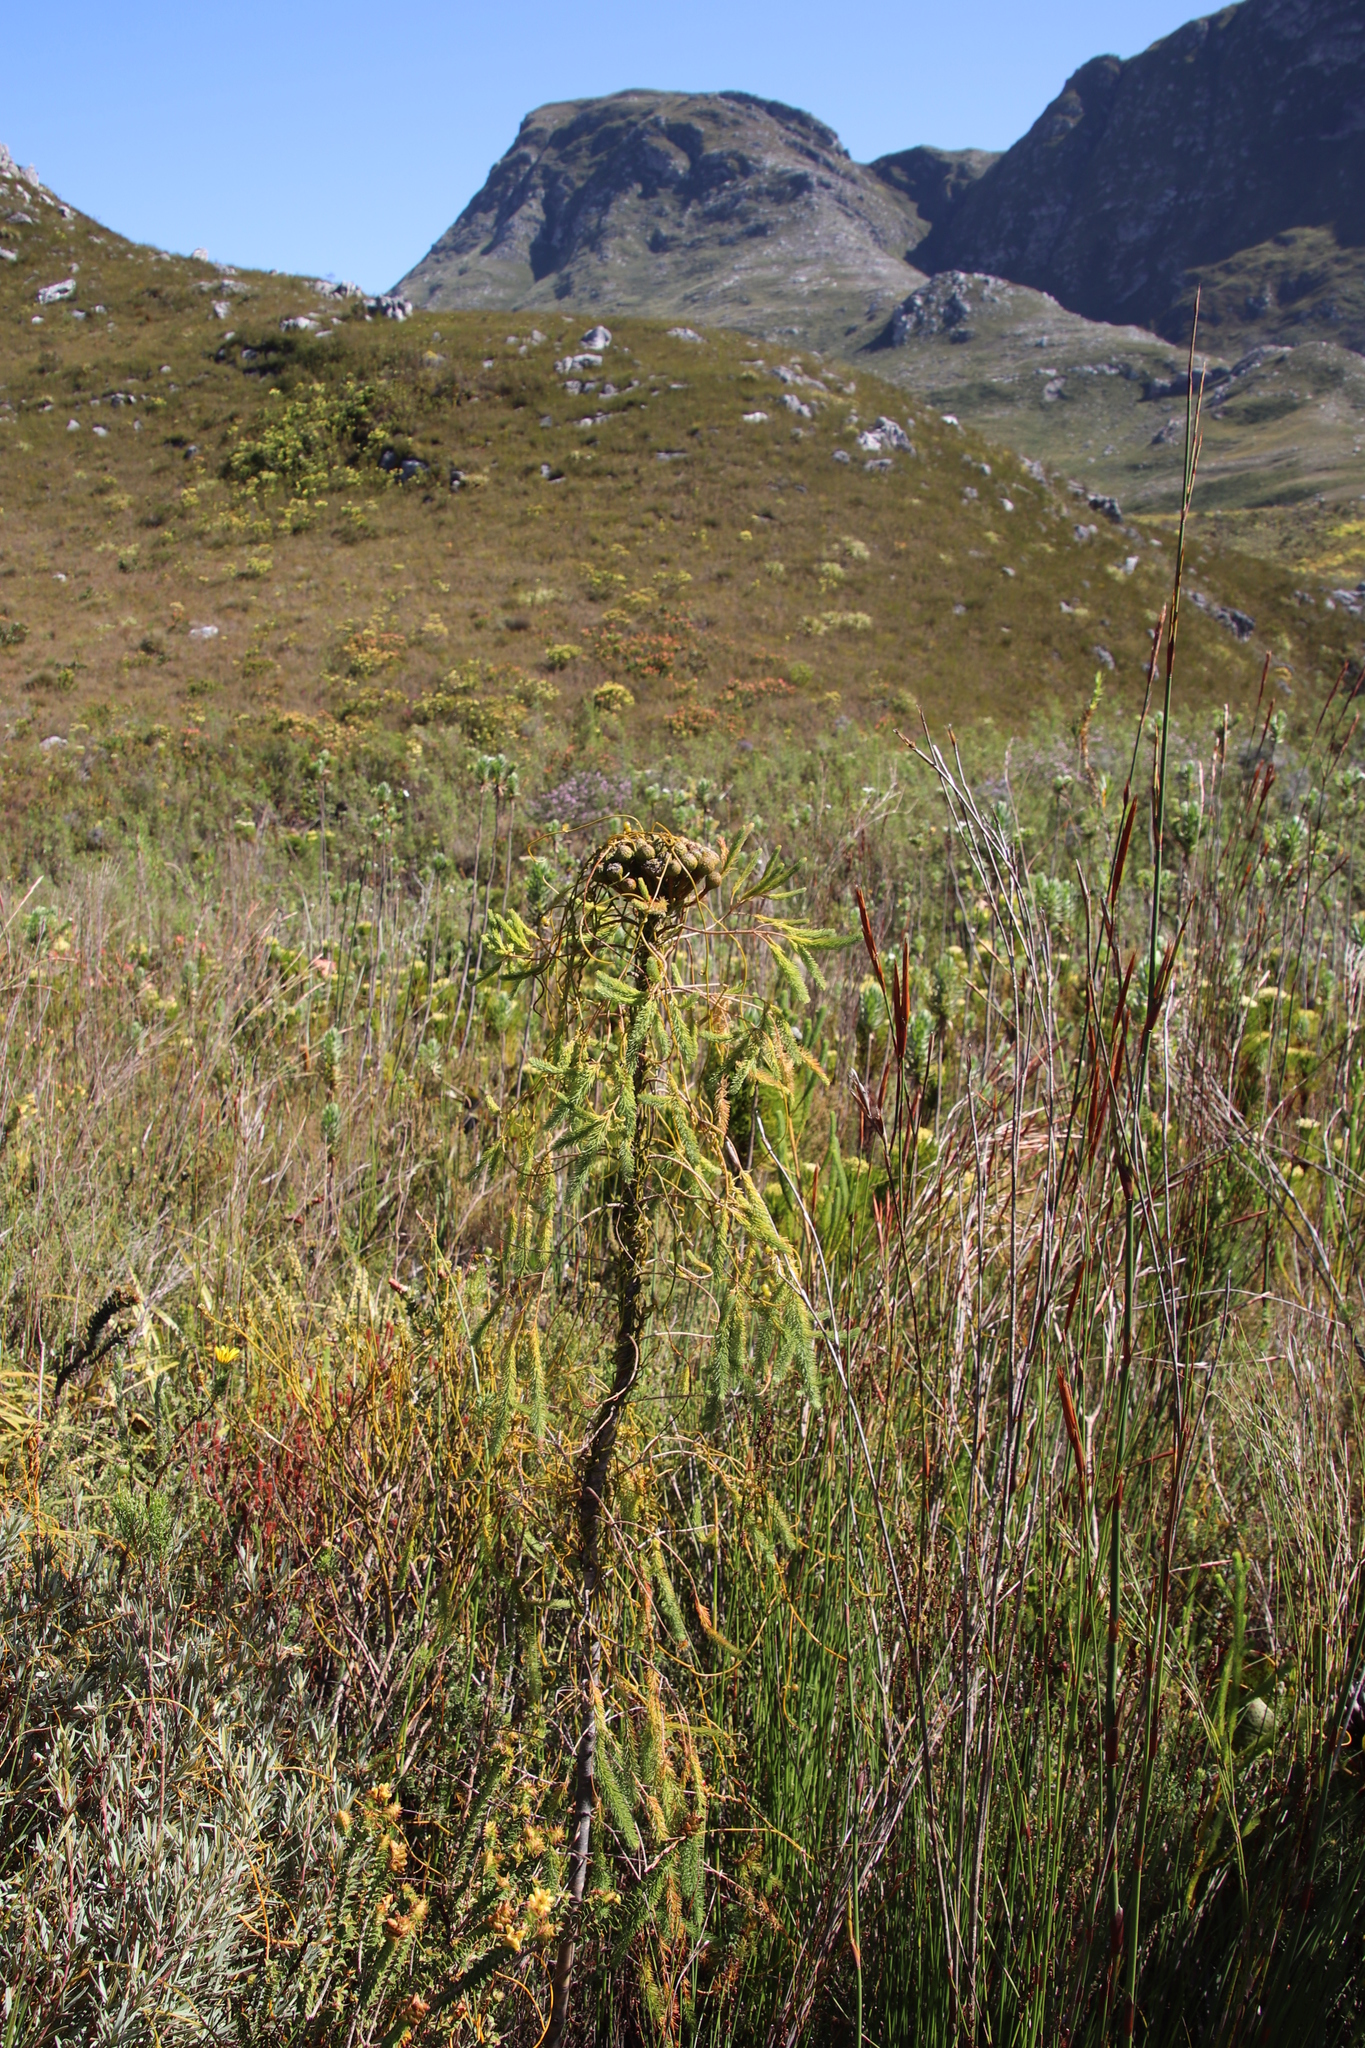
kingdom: Plantae
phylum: Tracheophyta
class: Magnoliopsida
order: Laurales
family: Lauraceae
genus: Cassytha
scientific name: Cassytha ciliolata
